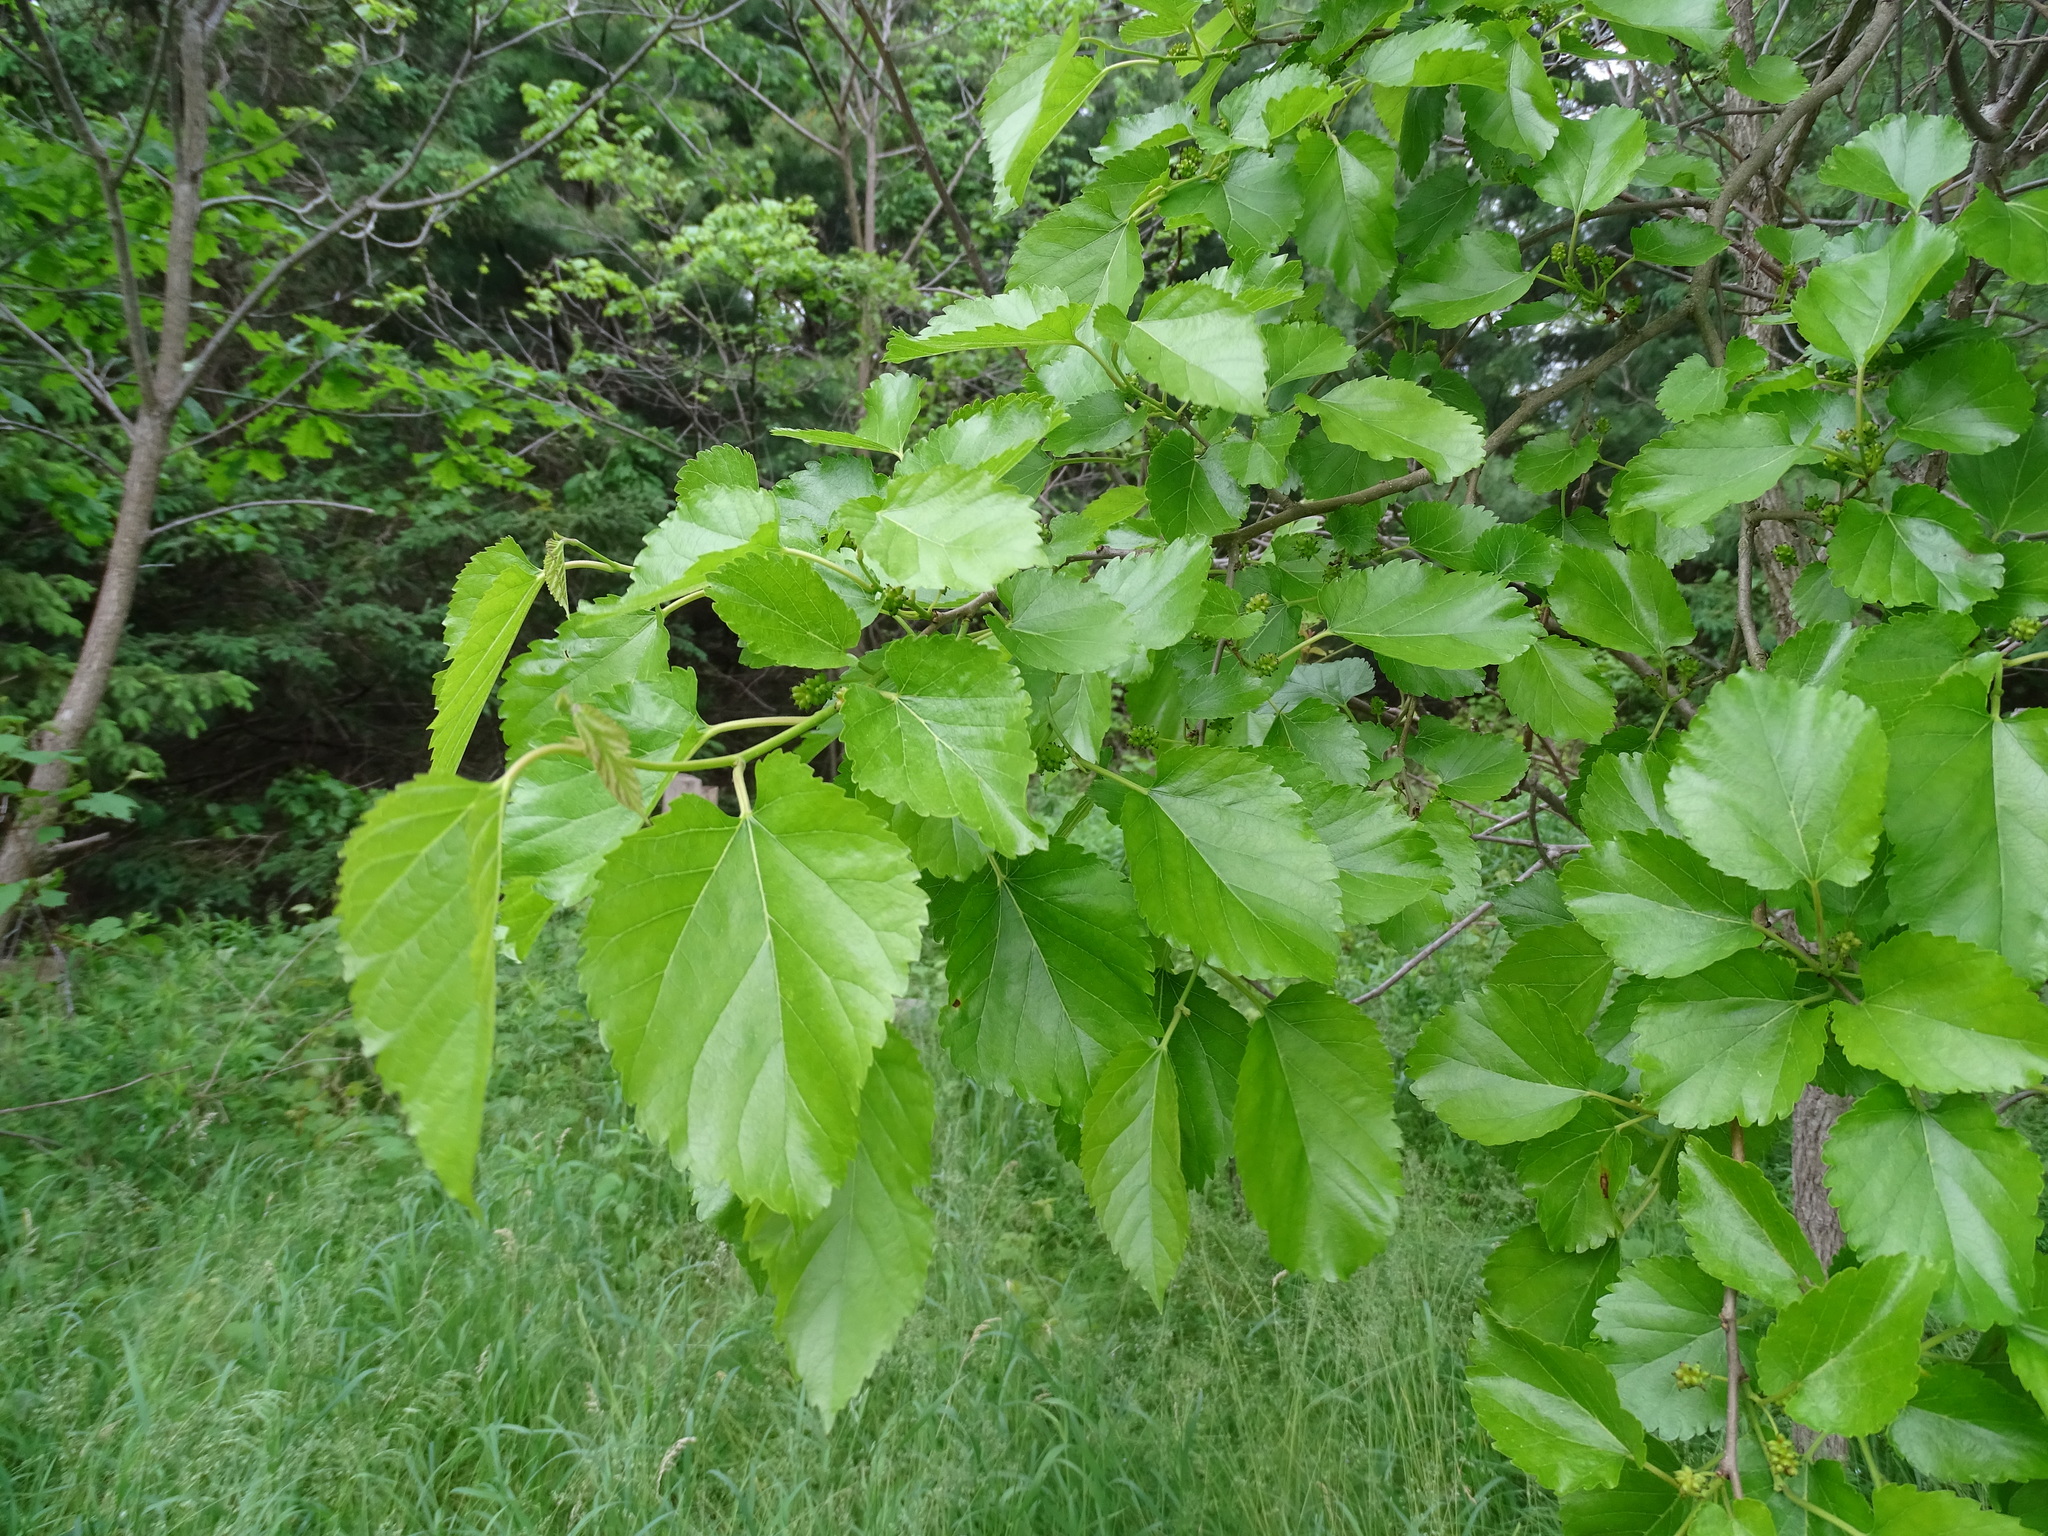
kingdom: Plantae
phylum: Tracheophyta
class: Magnoliopsida
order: Rosales
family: Moraceae
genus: Morus
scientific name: Morus alba
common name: White mulberry
